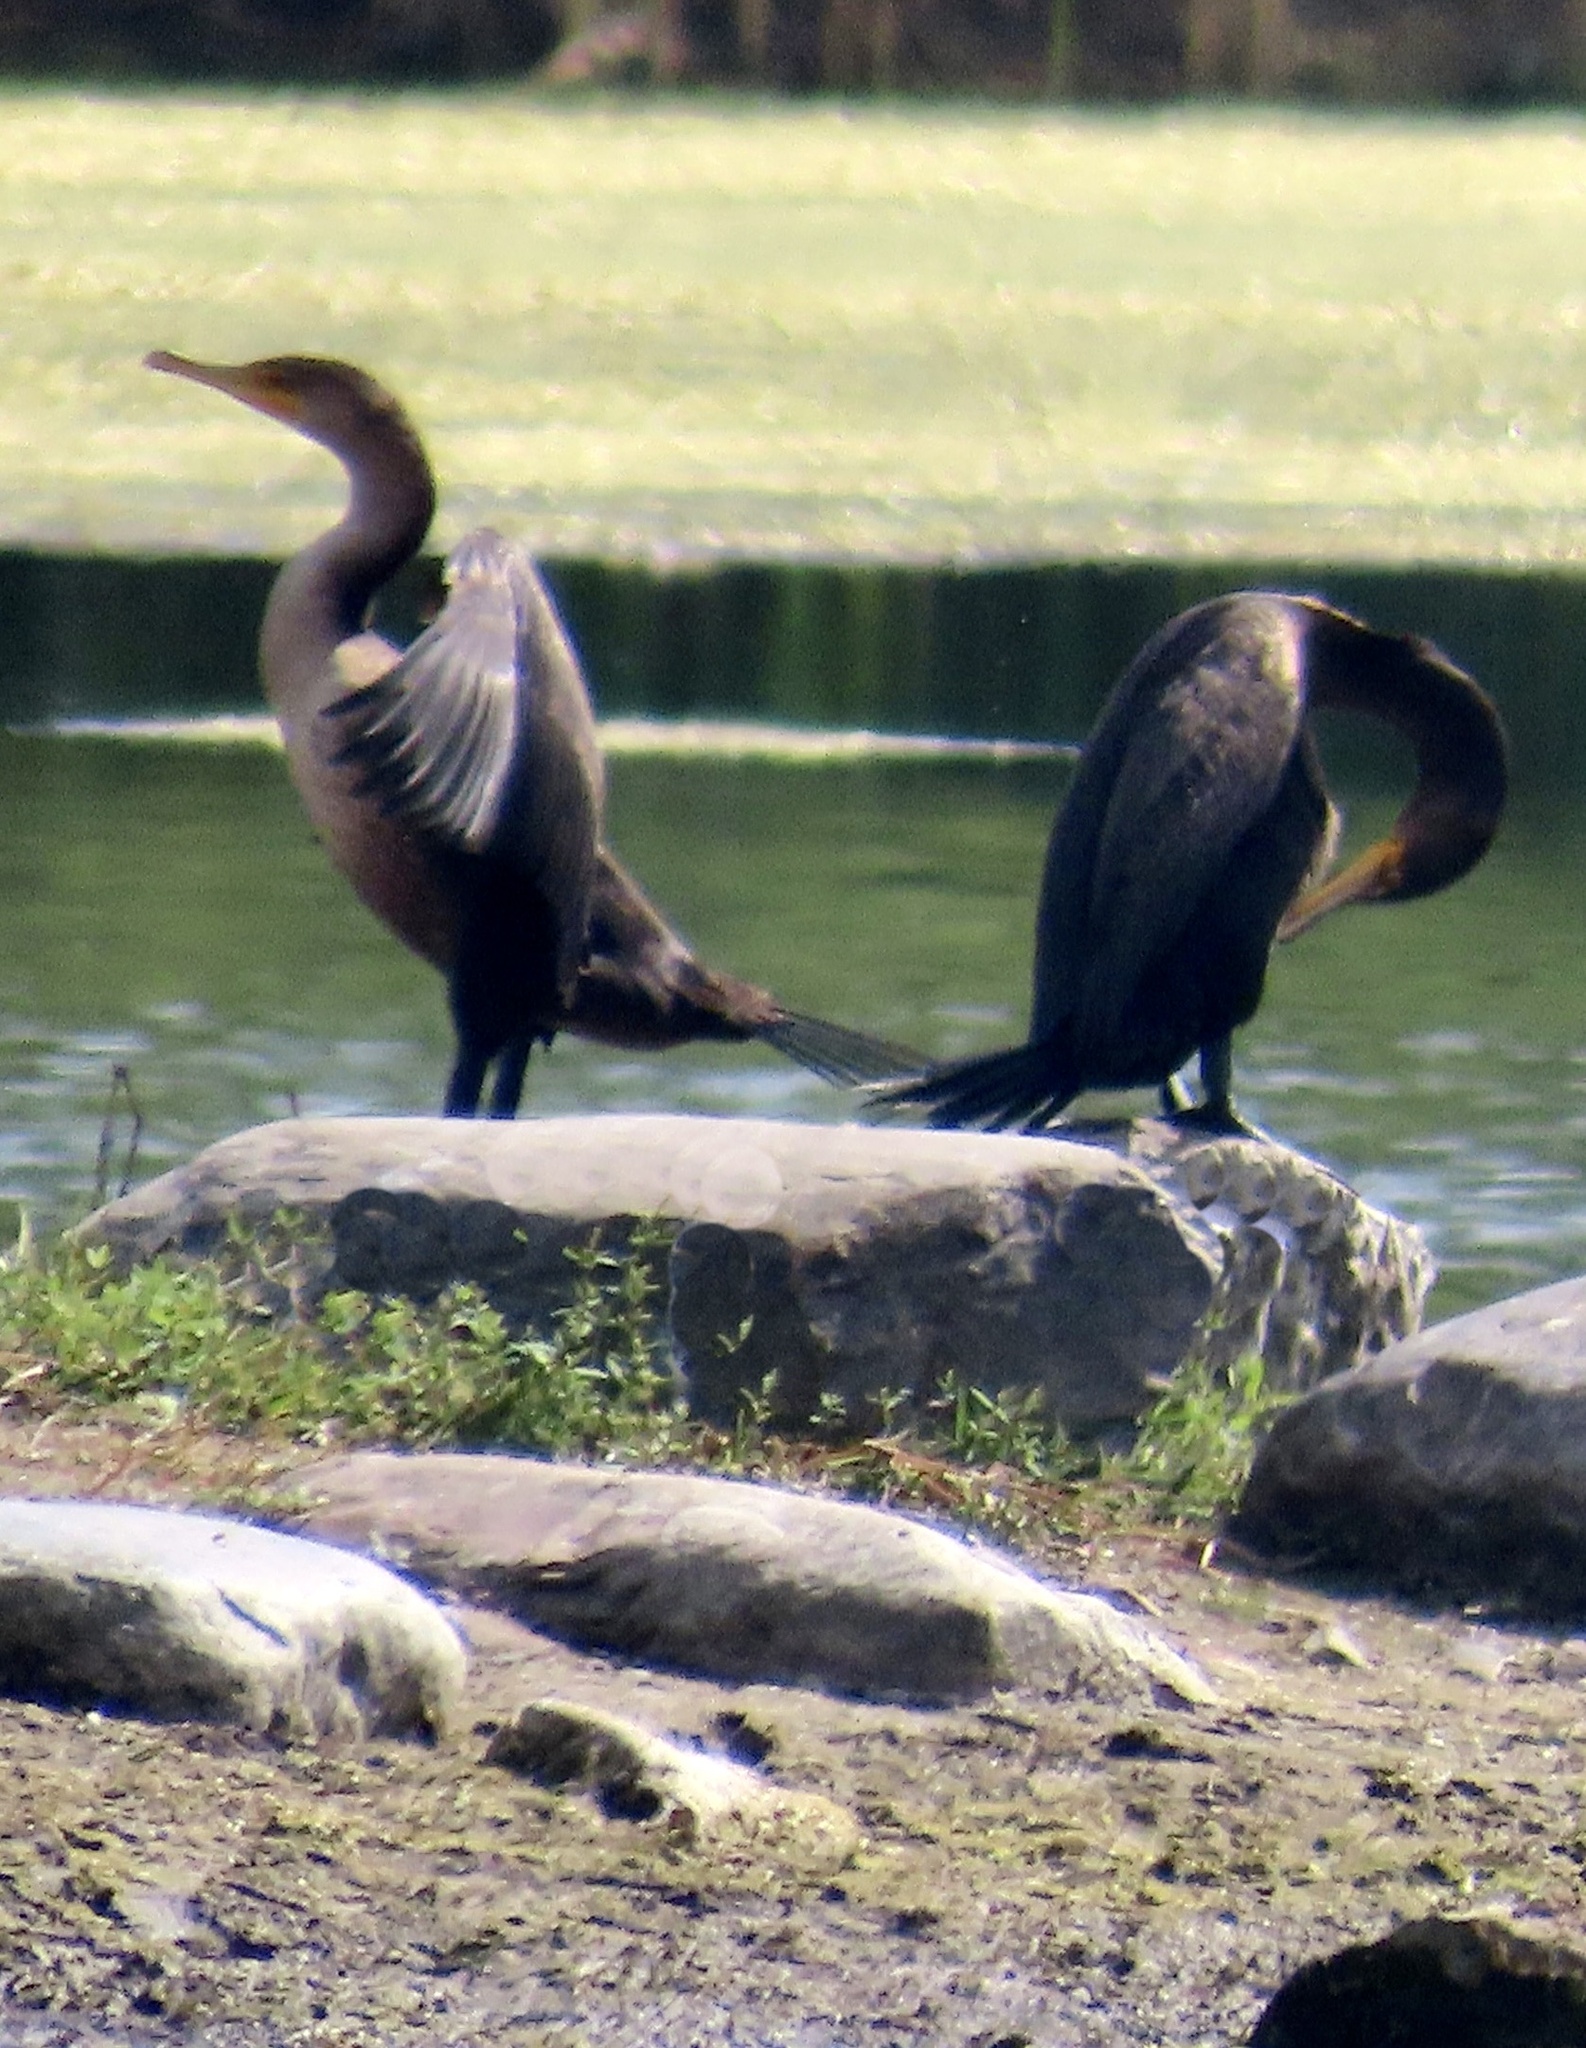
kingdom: Animalia
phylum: Chordata
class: Aves
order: Suliformes
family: Phalacrocoracidae
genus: Phalacrocorax
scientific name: Phalacrocorax auritus
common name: Double-crested cormorant
